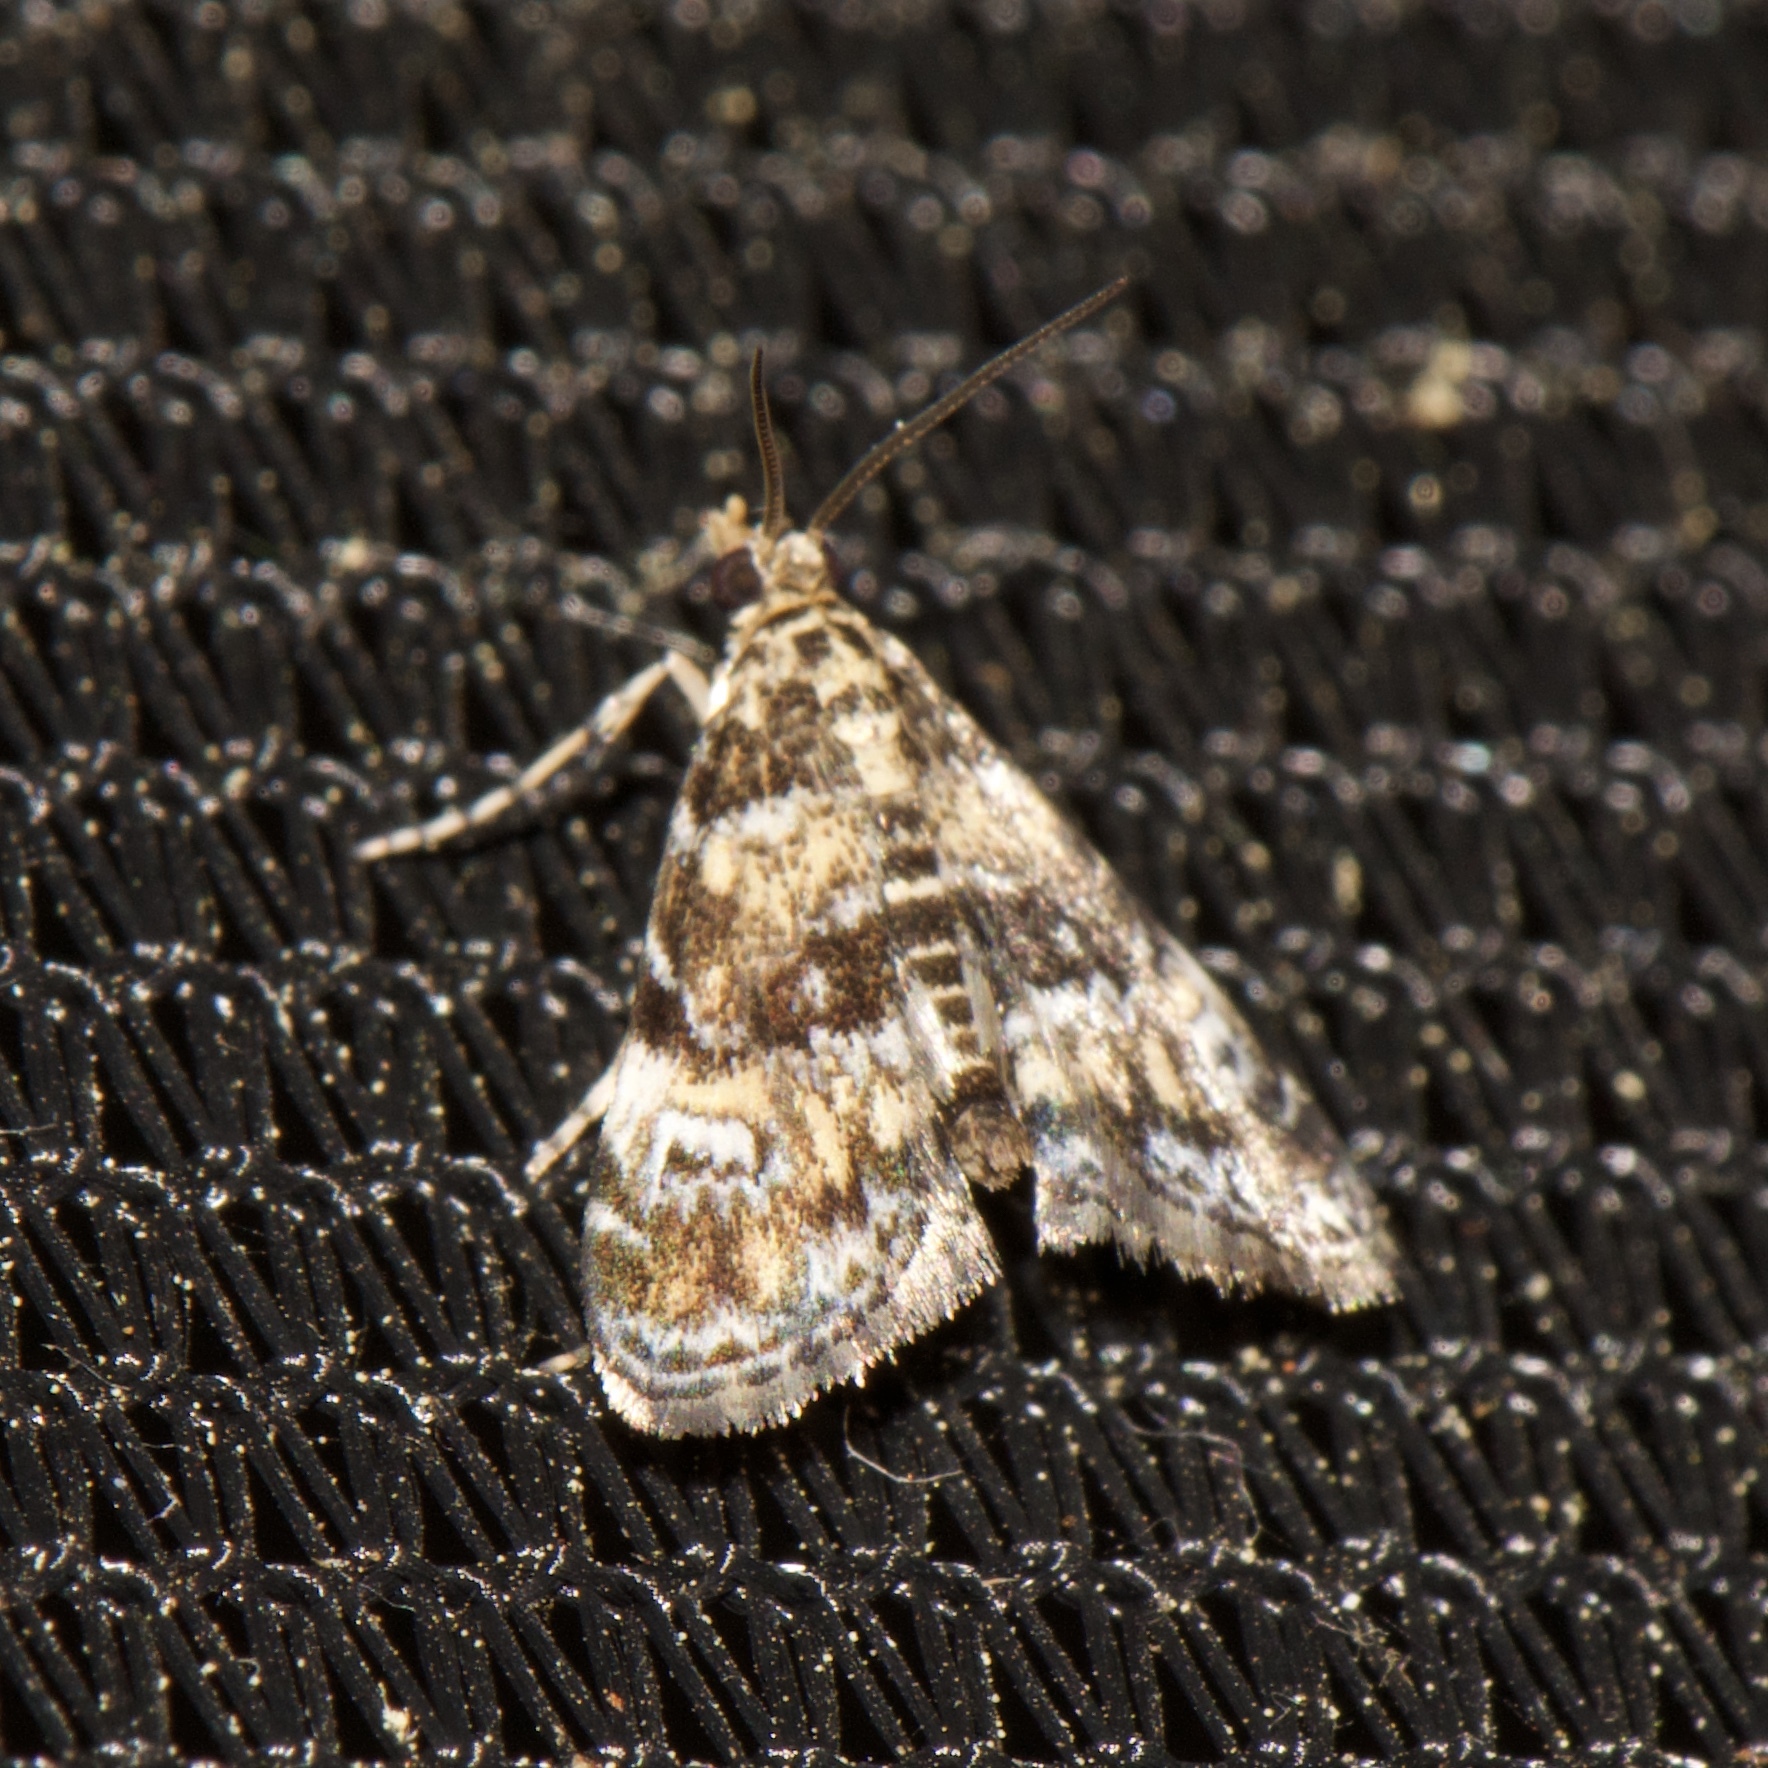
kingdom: Animalia
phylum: Arthropoda
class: Insecta
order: Lepidoptera
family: Crambidae
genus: Elophila
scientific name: Elophila obliteralis
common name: Waterlily leafcutter moth
